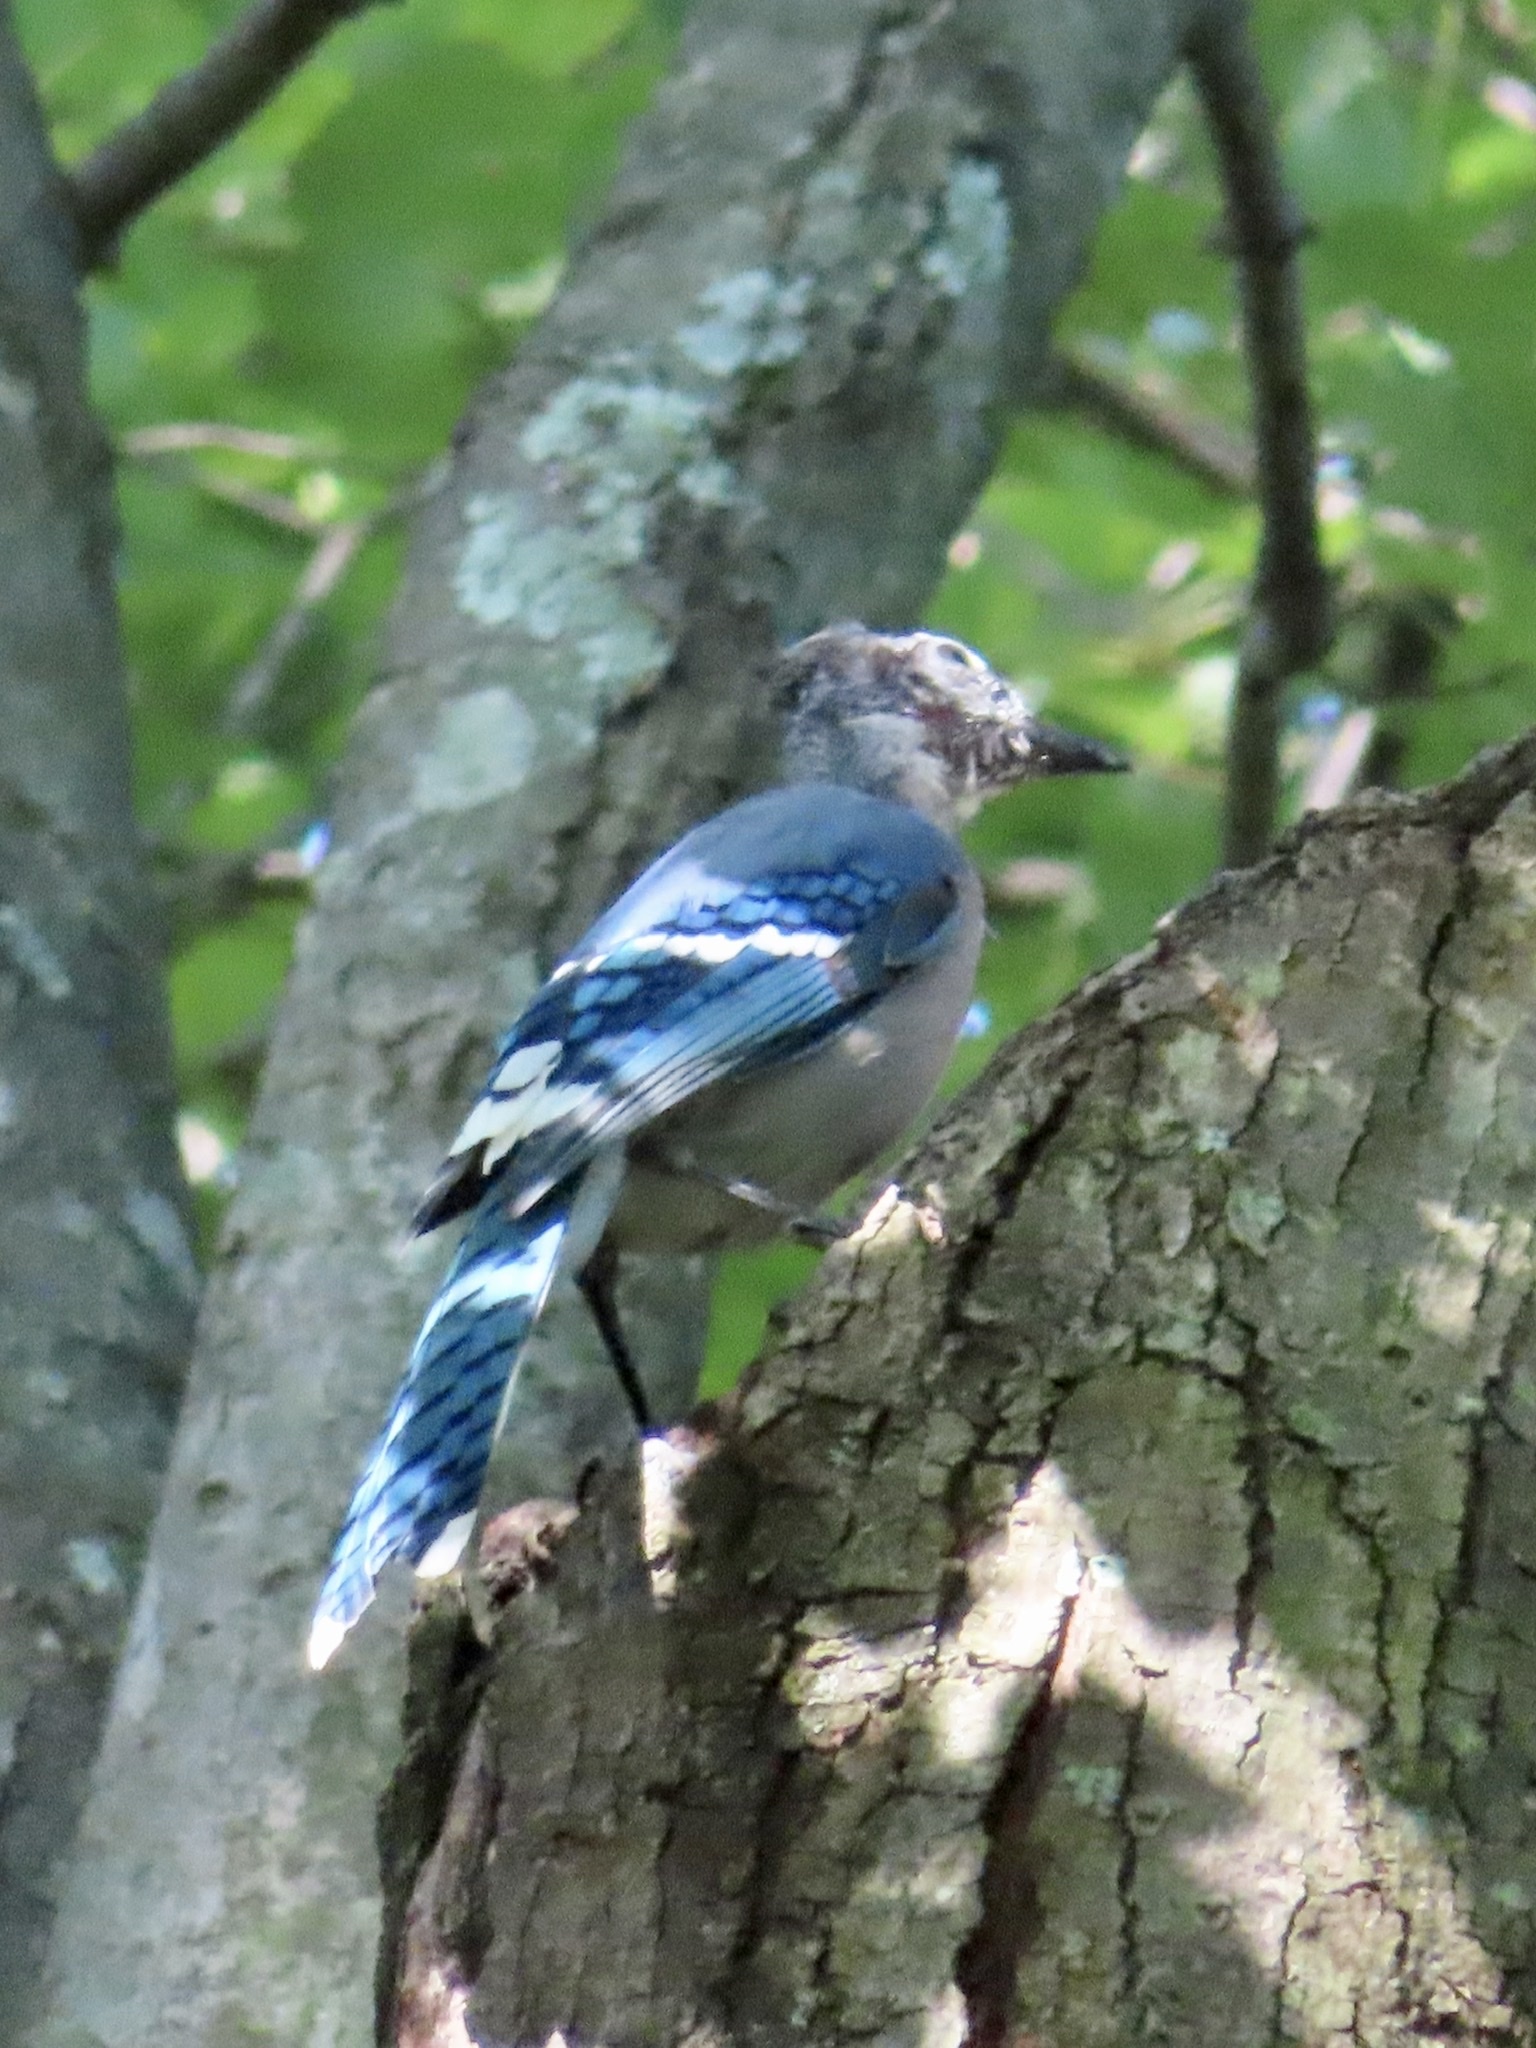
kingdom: Animalia
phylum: Chordata
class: Aves
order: Passeriformes
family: Corvidae
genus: Cyanocitta
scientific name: Cyanocitta cristata
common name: Blue jay
